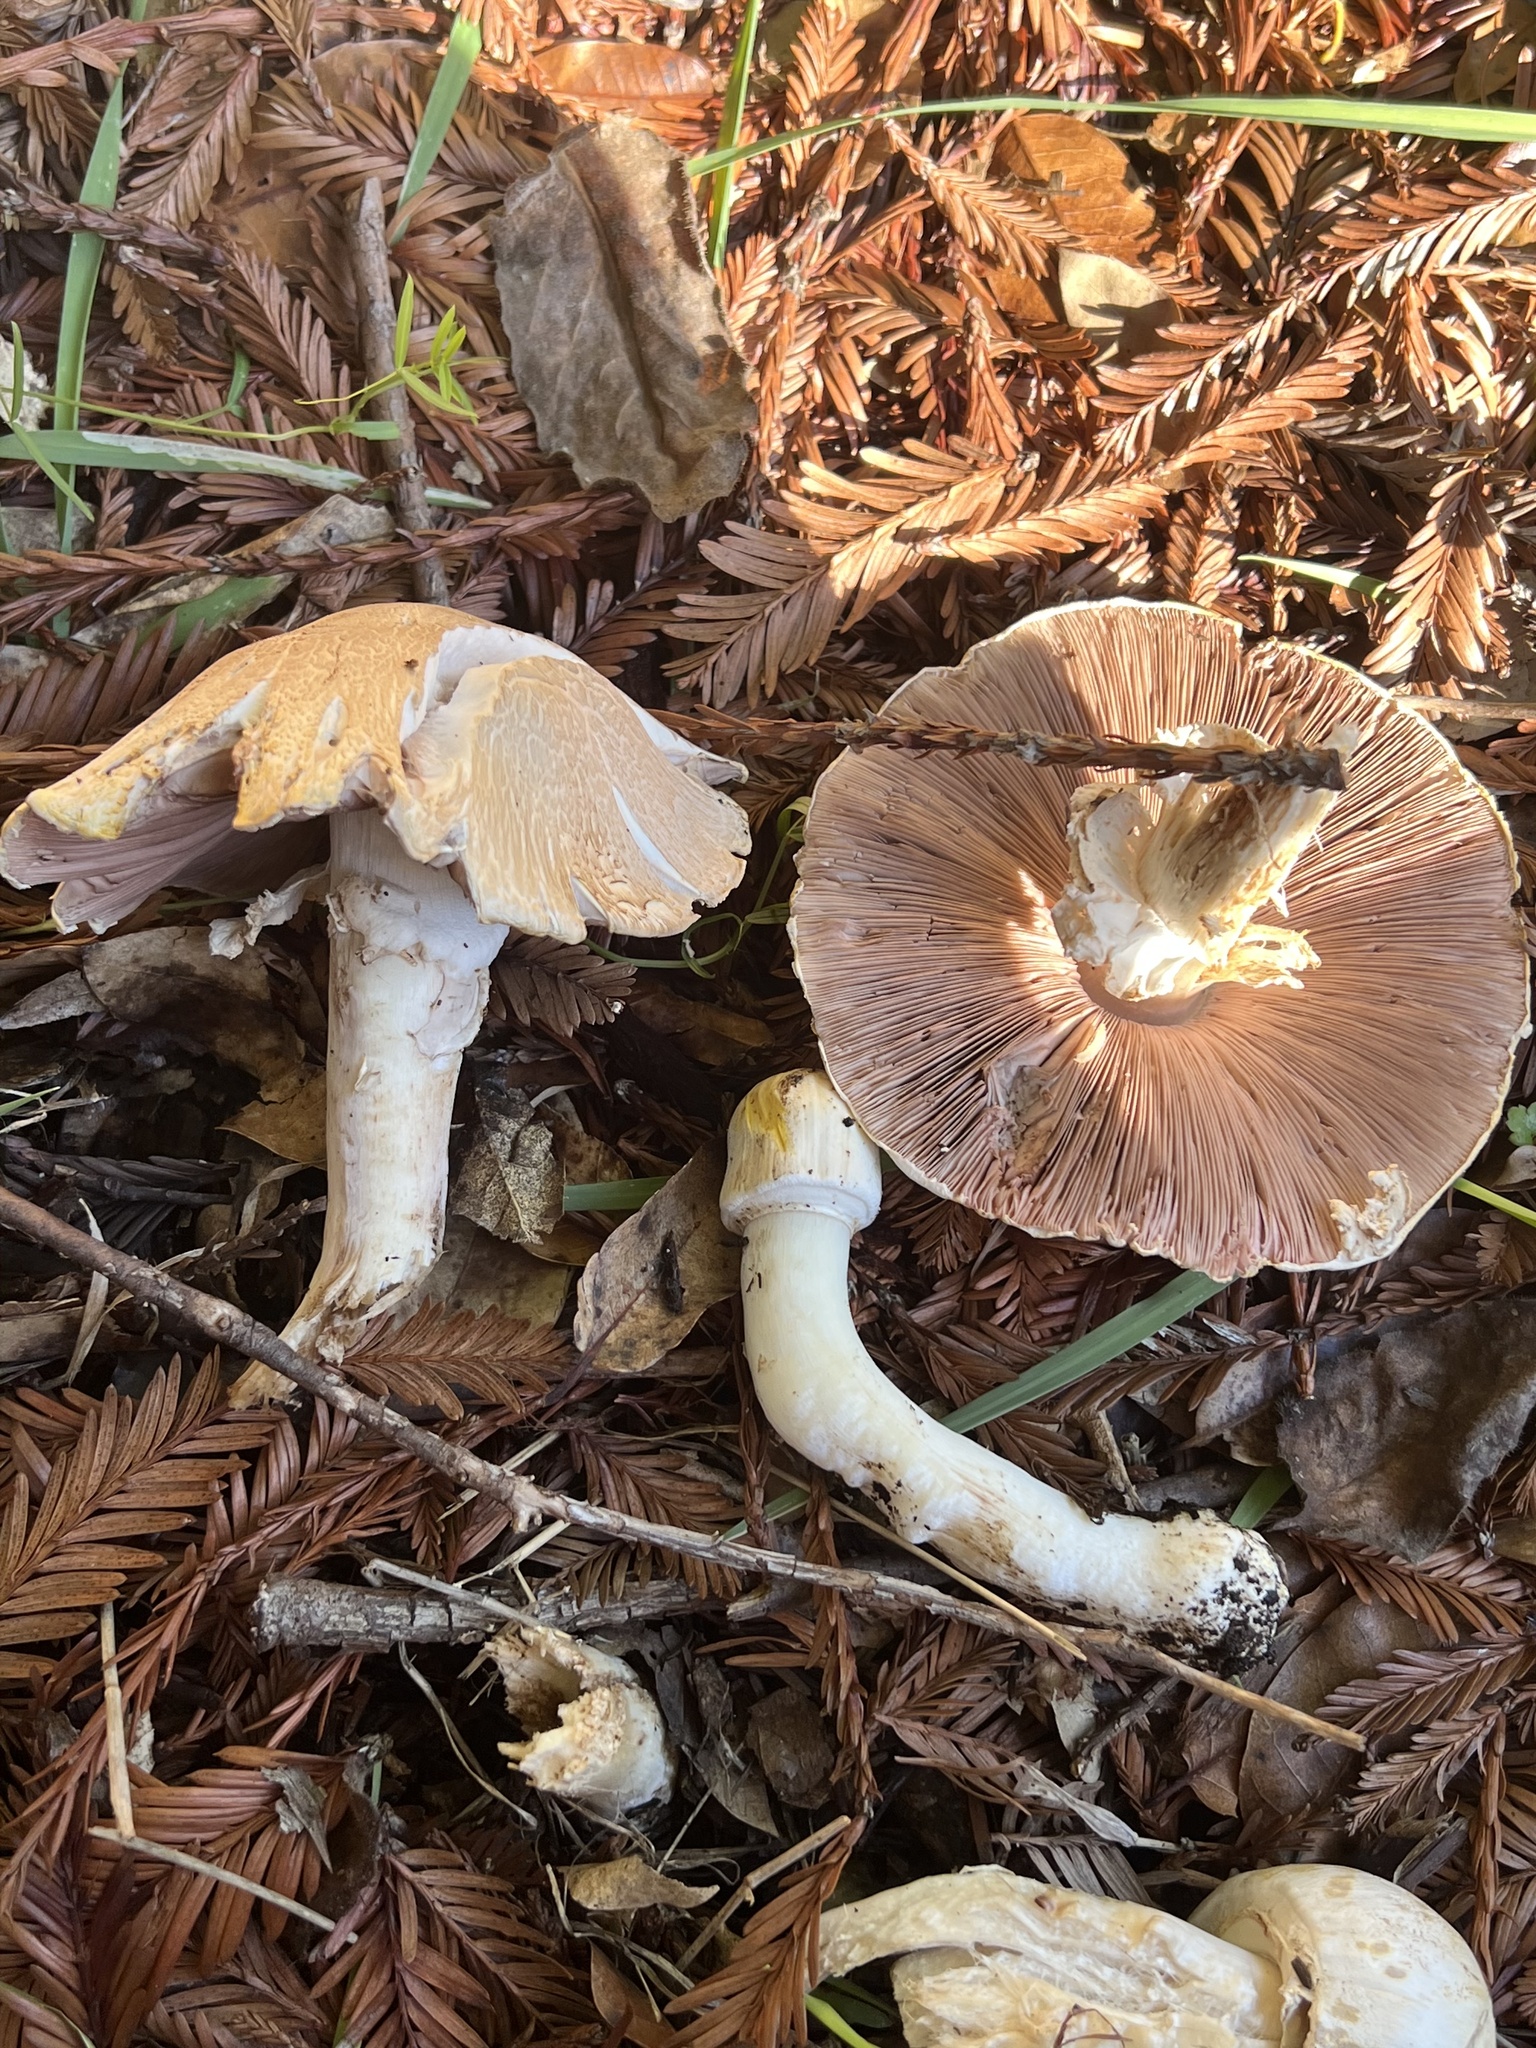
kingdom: Fungi
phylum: Basidiomycota
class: Agaricomycetes
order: Agaricales
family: Agaricaceae
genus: Agaricus
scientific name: Agaricus xanthodermus
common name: Yellow stainer
